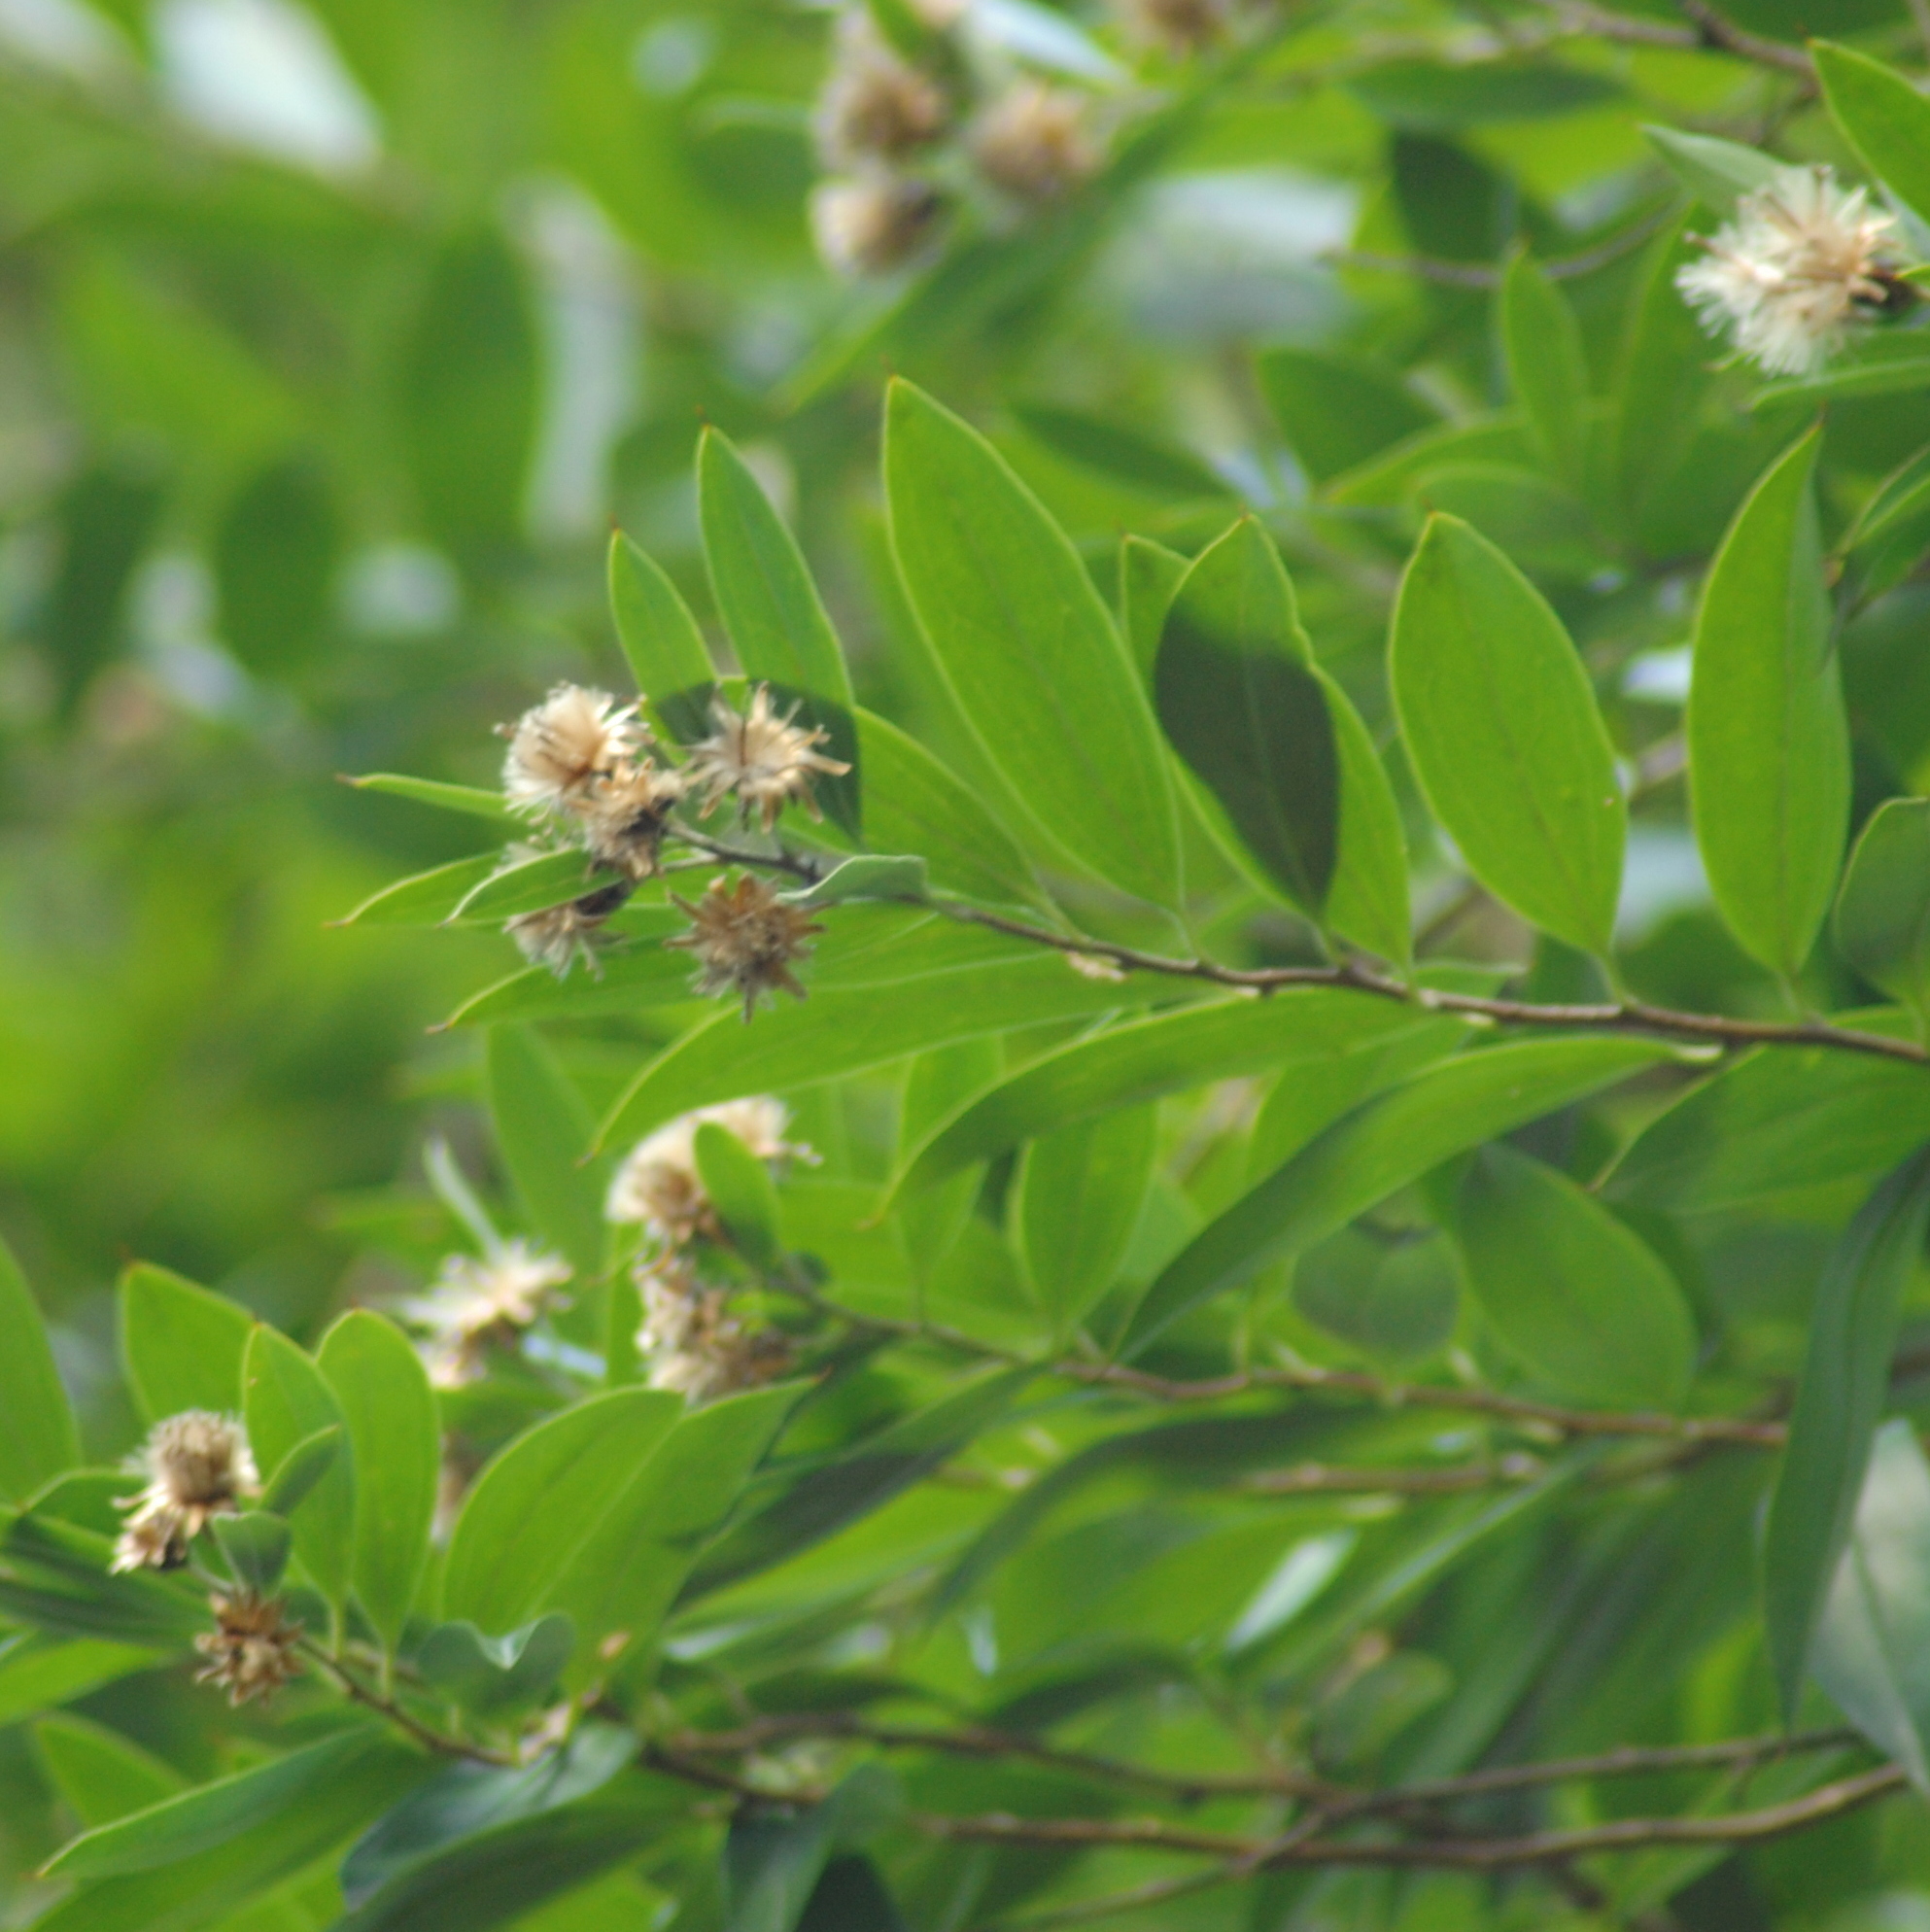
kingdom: Plantae
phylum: Tracheophyta
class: Magnoliopsida
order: Asterales
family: Asteraceae
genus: Dasyphyllum
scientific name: Dasyphyllum spinescens
